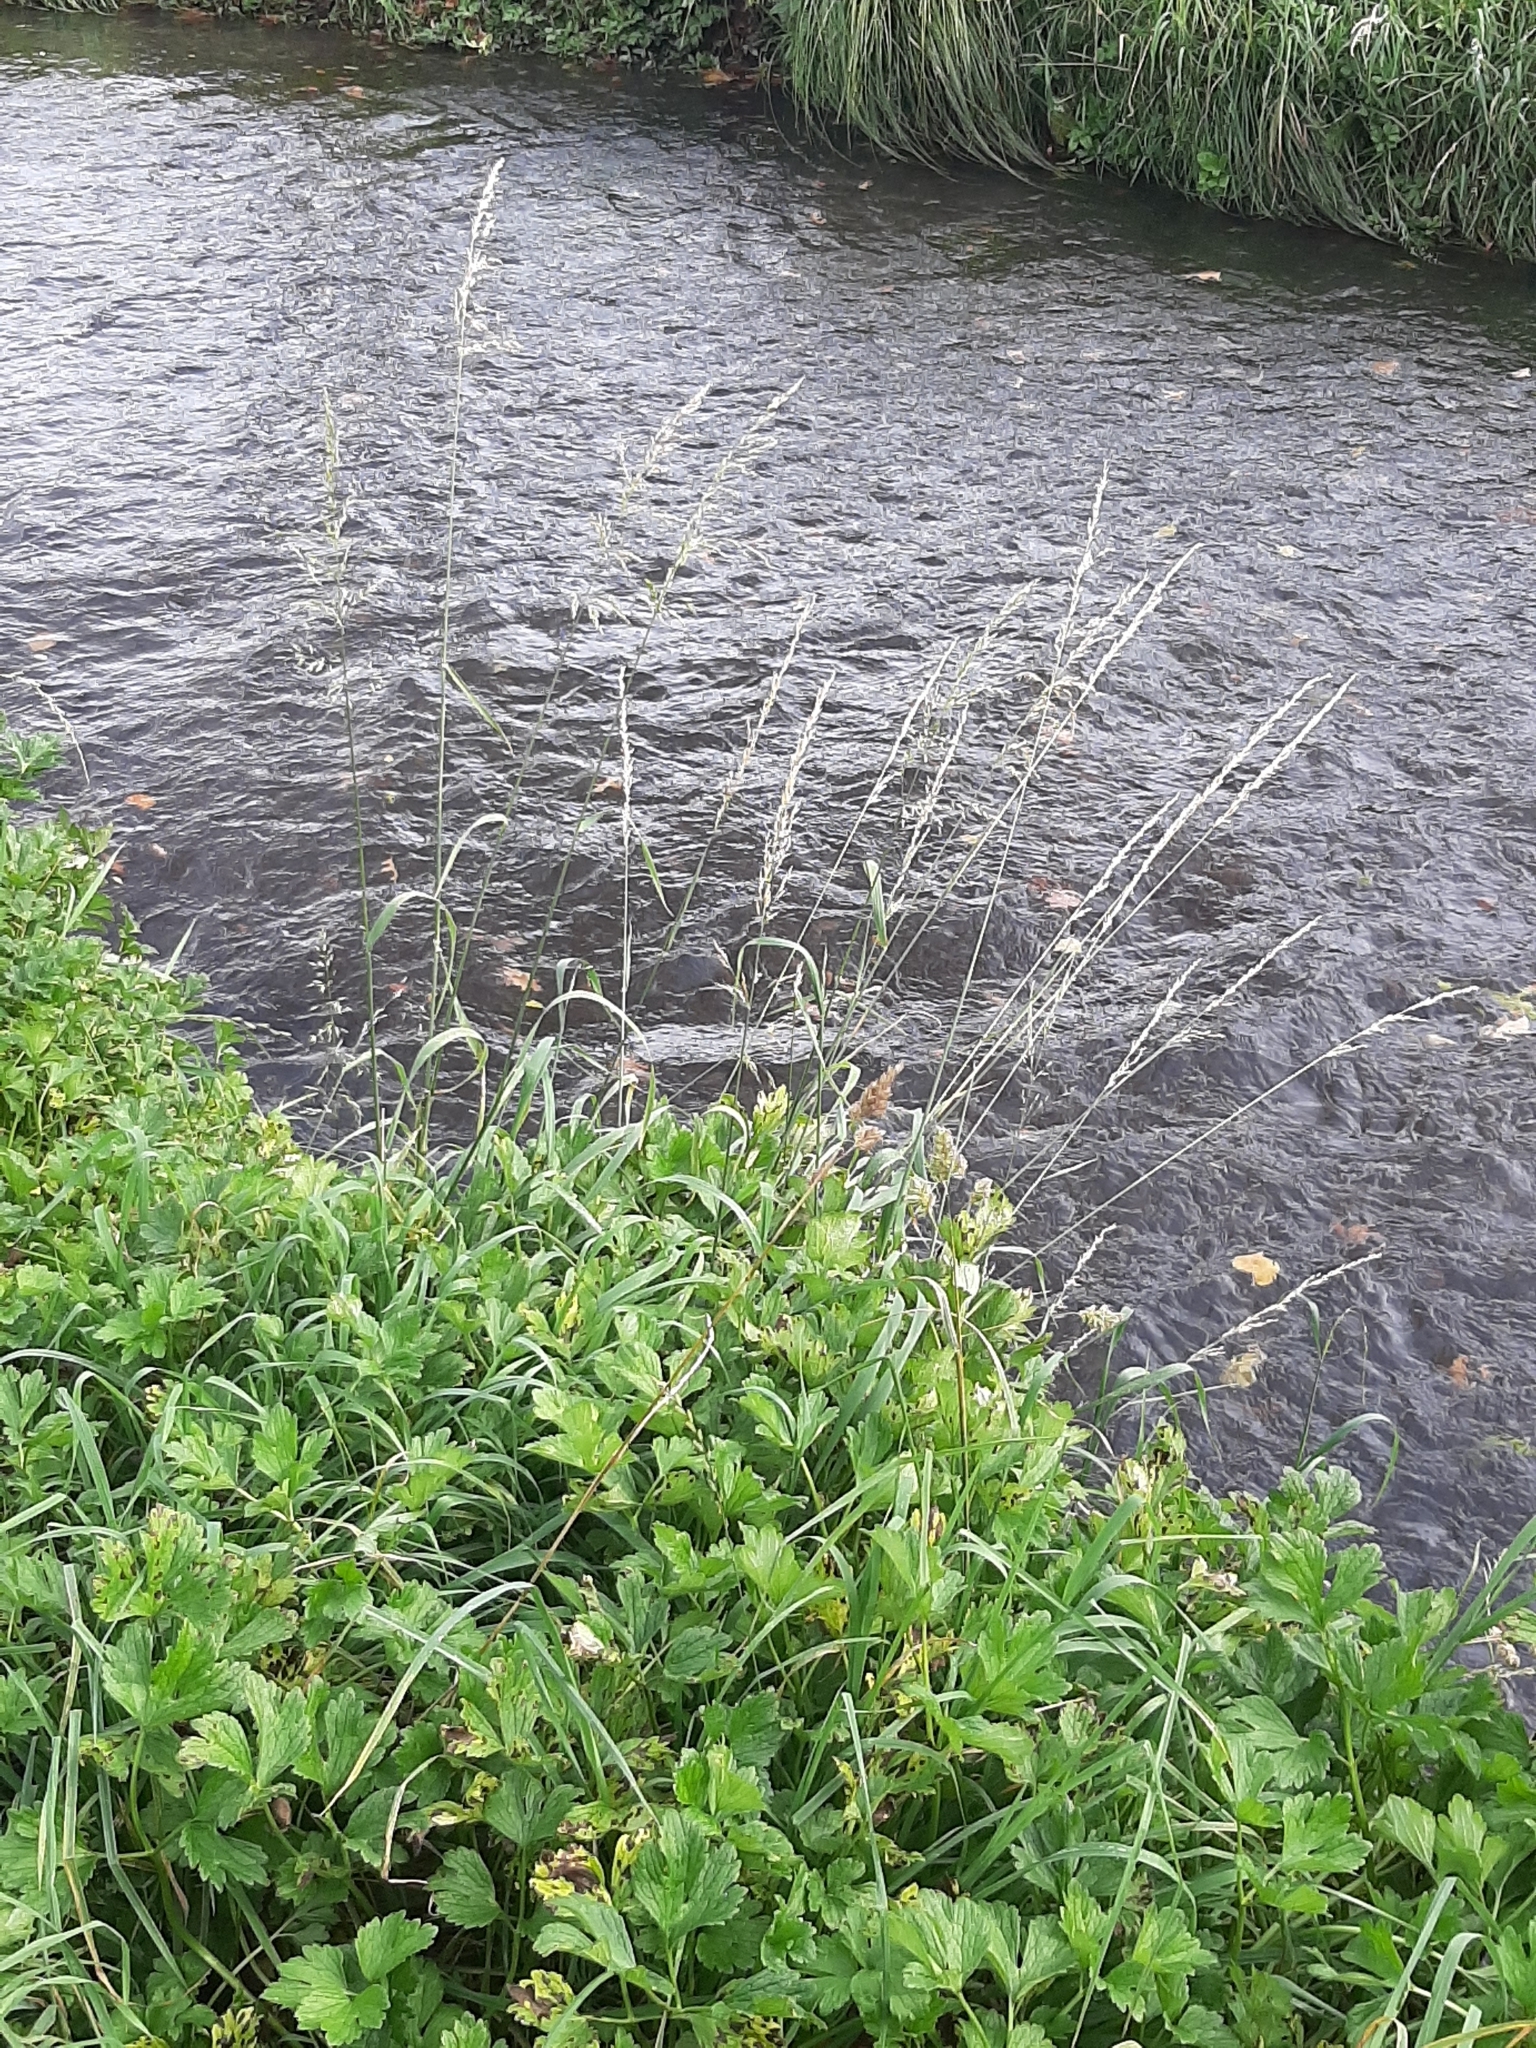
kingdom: Plantae
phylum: Tracheophyta
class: Liliopsida
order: Poales
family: Poaceae
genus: Arrhenatherum
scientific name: Arrhenatherum elatius
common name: Tall oatgrass
